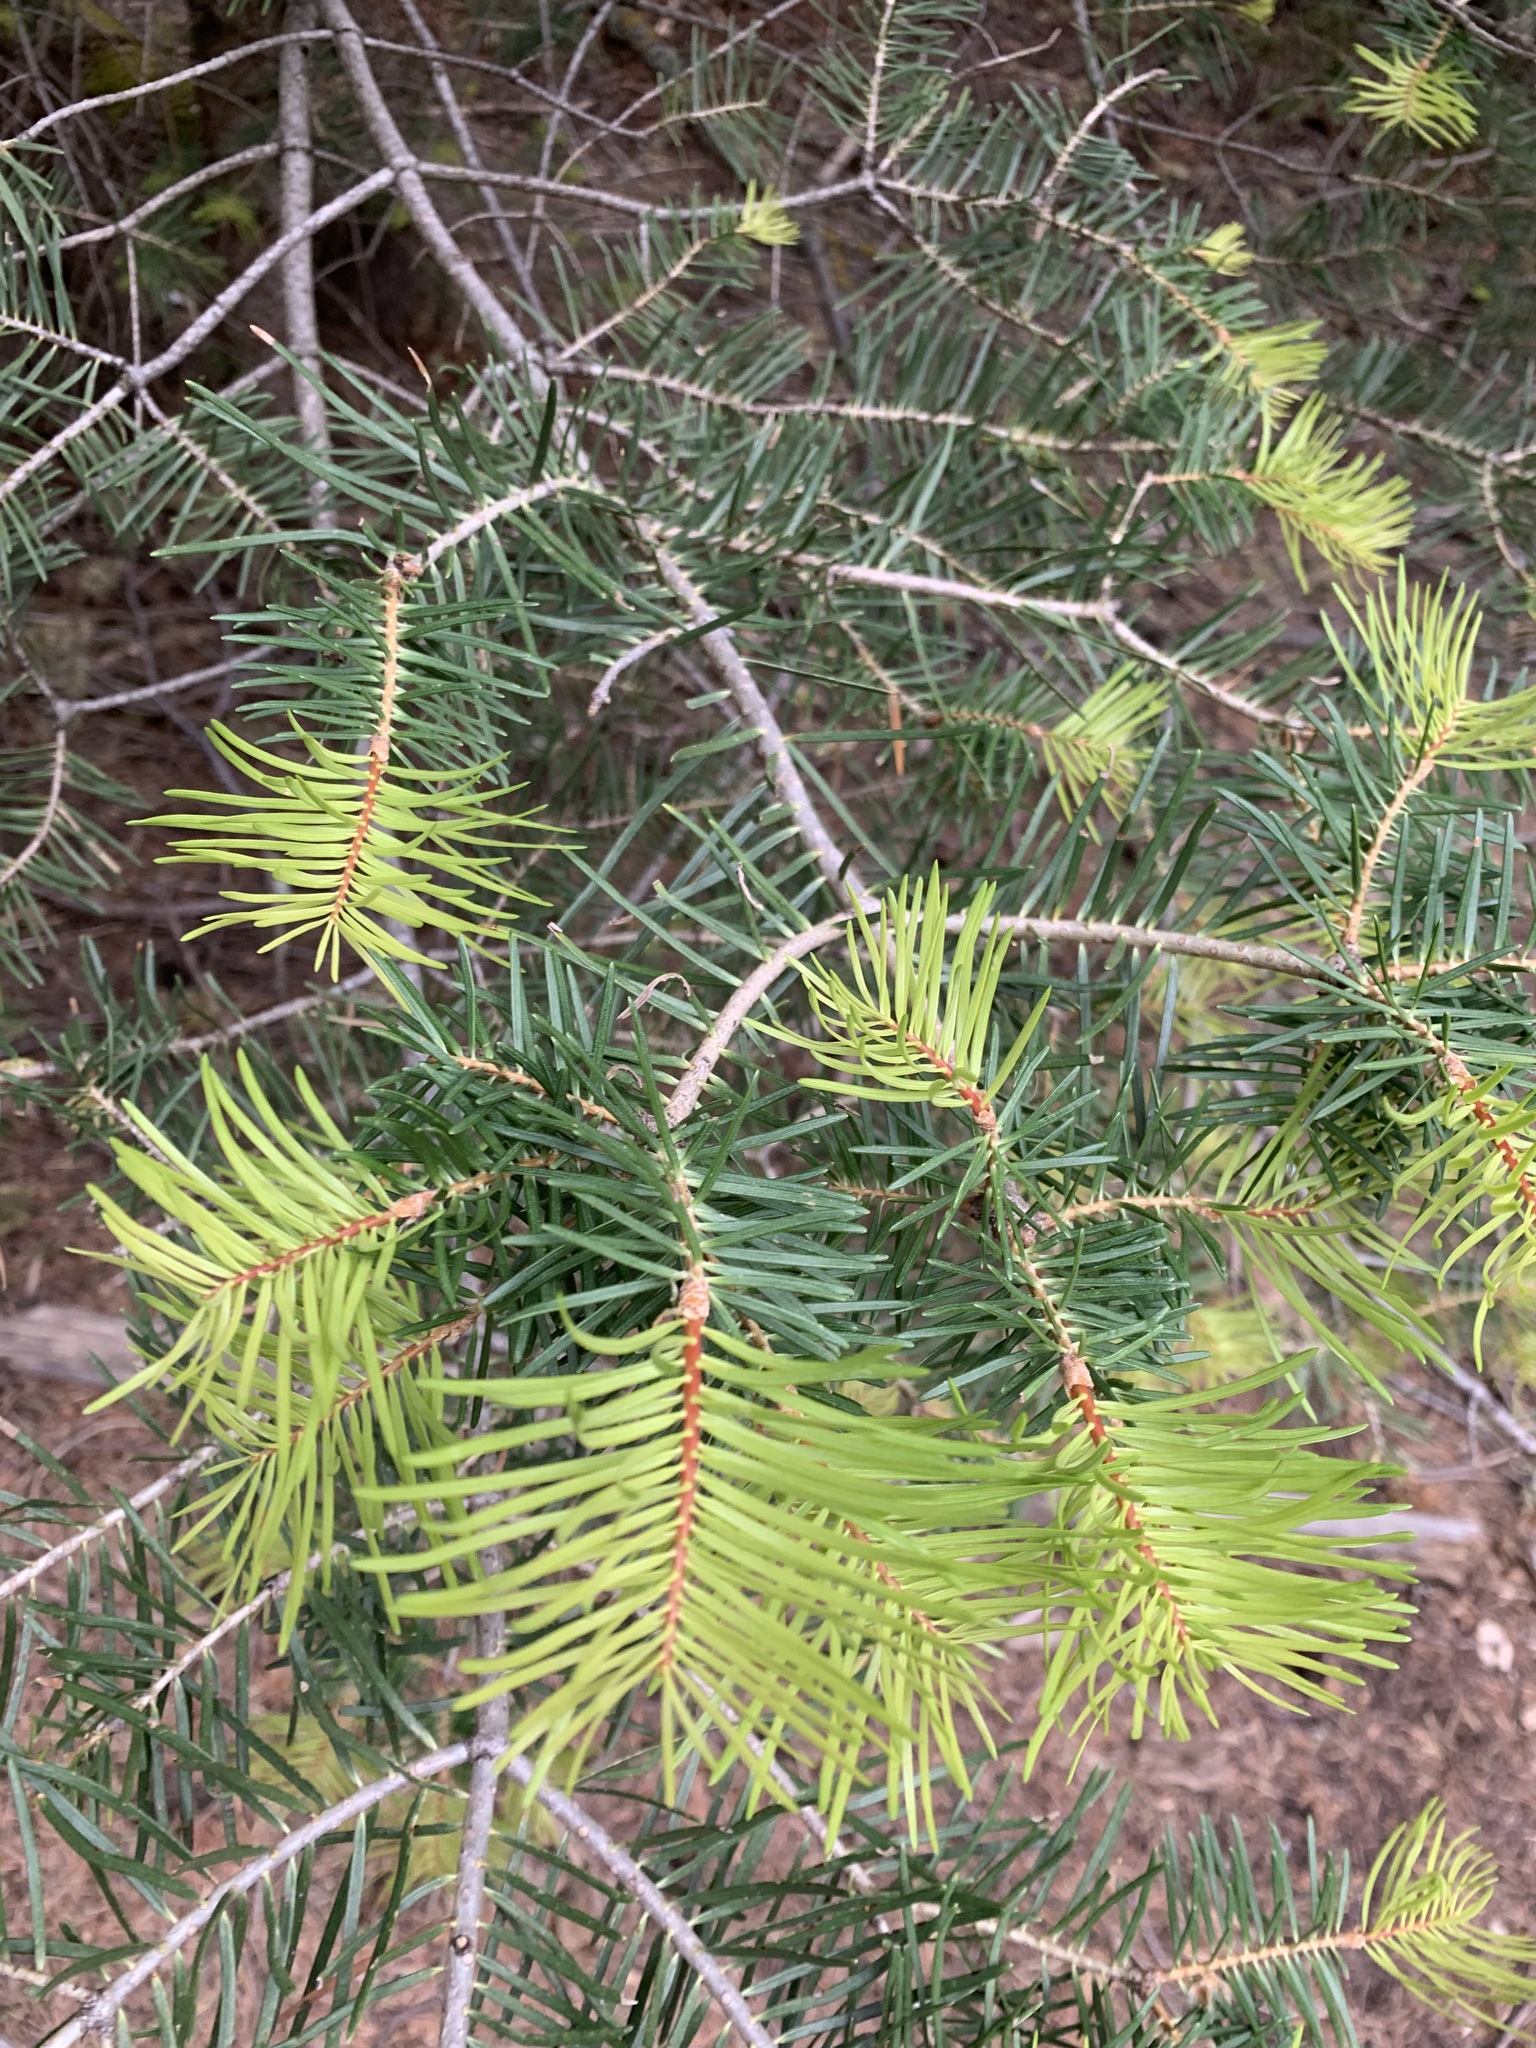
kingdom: Plantae
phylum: Tracheophyta
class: Pinopsida
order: Pinales
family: Pinaceae
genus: Abies
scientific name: Abies concolor
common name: Colorado fir
